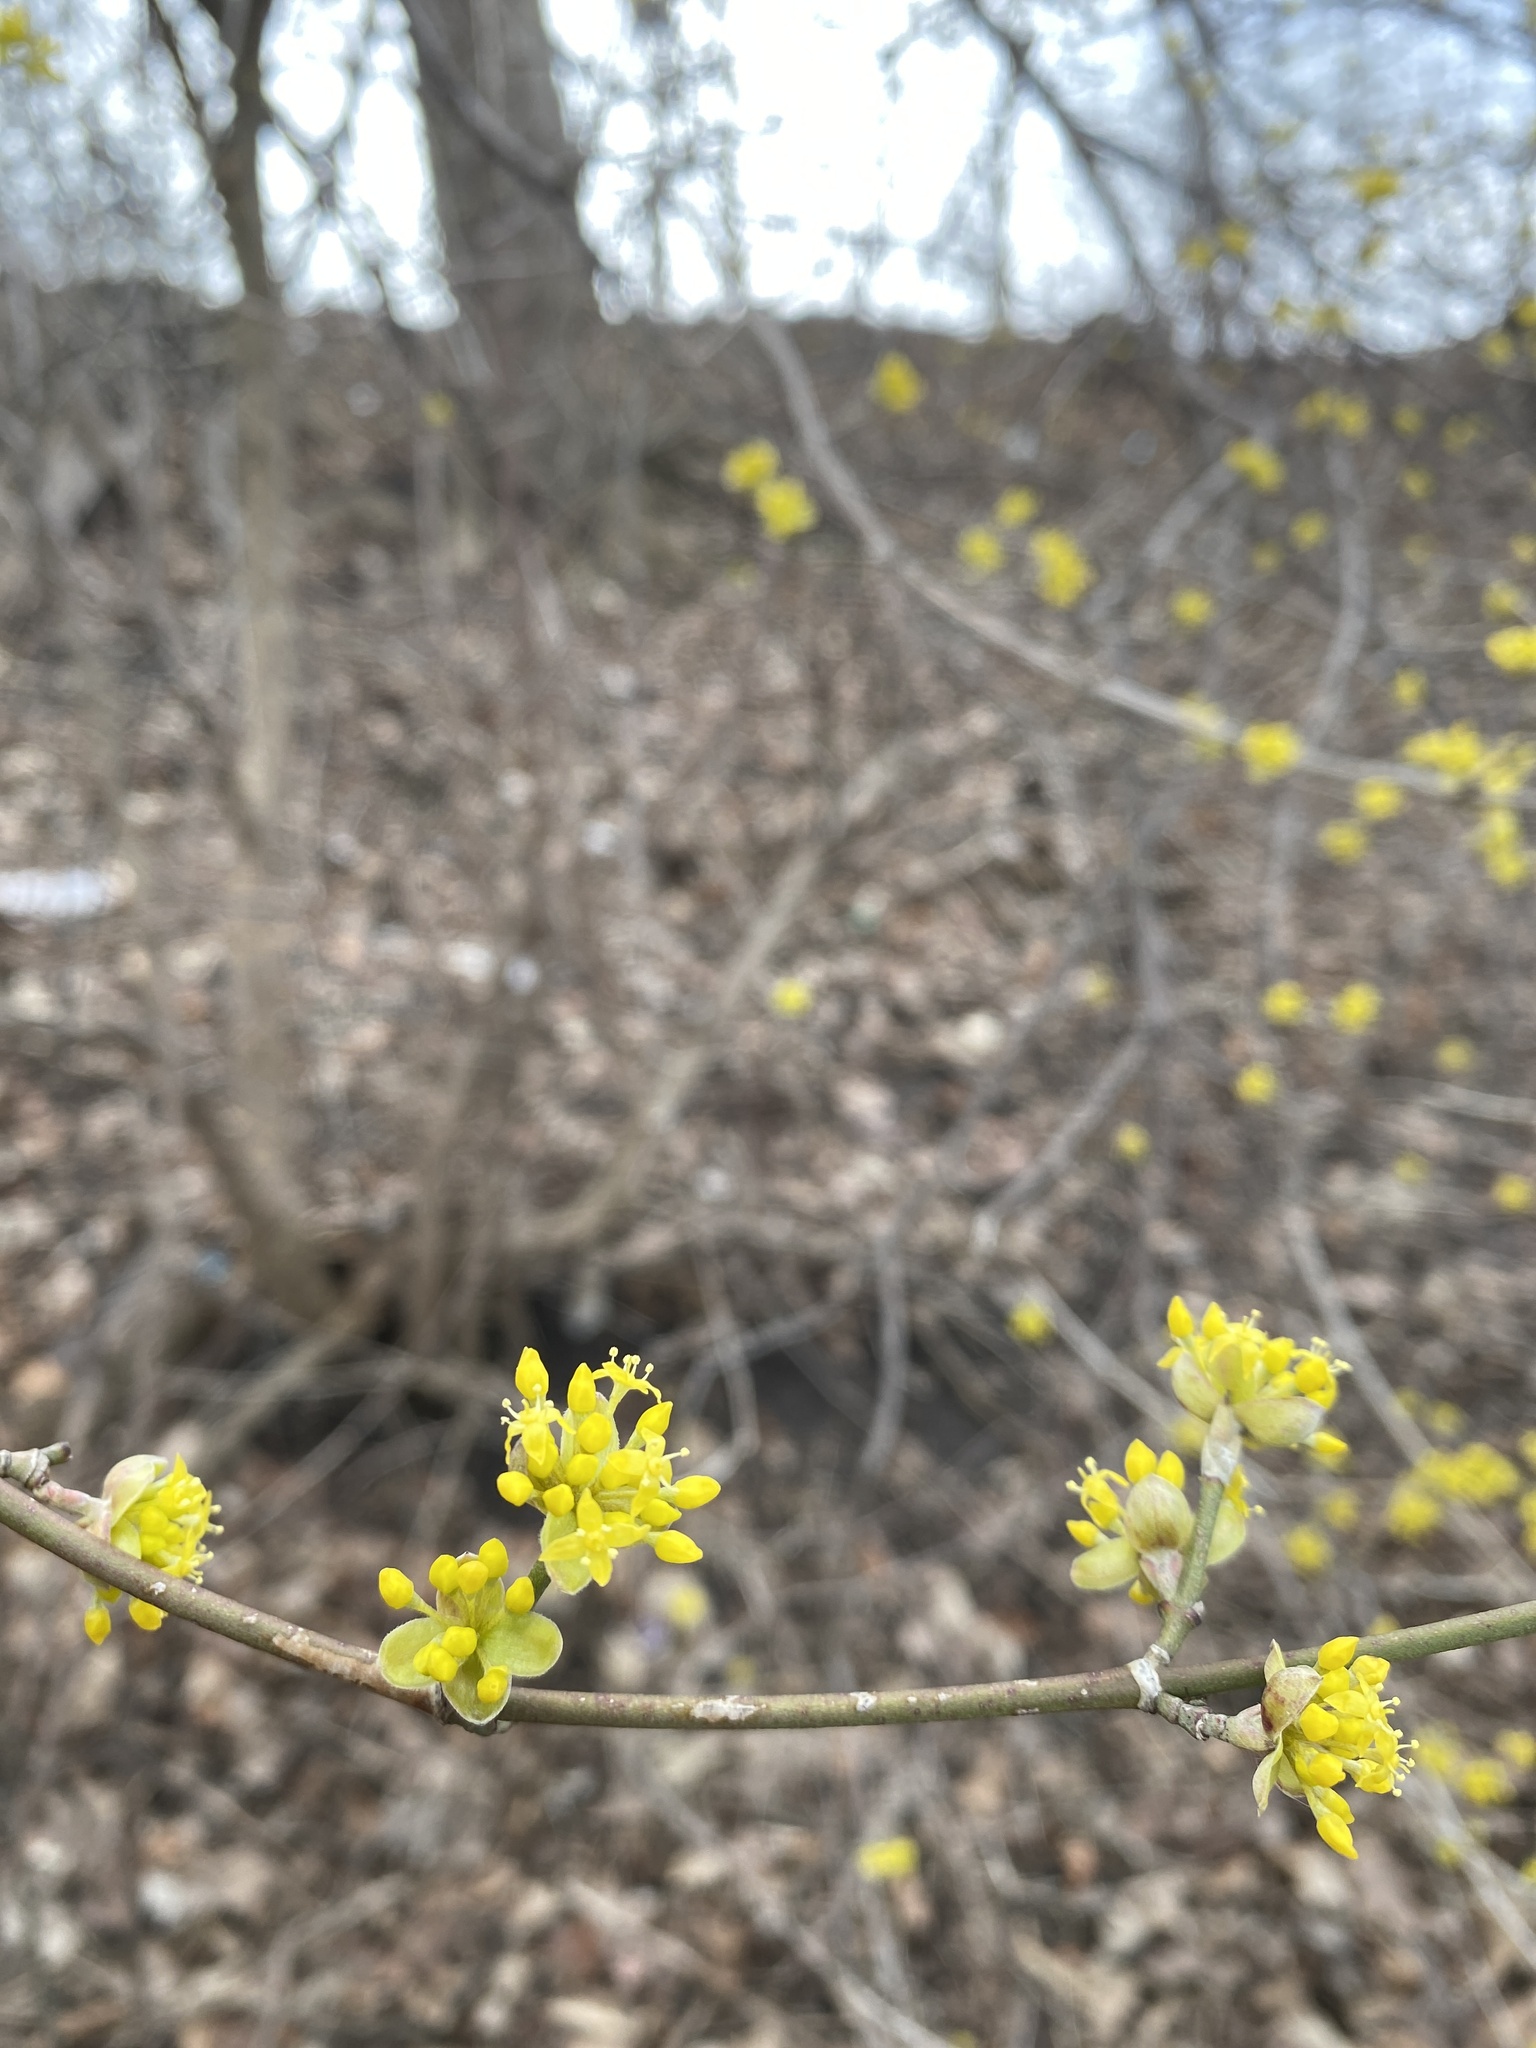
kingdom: Plantae
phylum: Tracheophyta
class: Magnoliopsida
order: Cornales
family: Cornaceae
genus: Cornus
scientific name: Cornus mas
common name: Cornelian-cherry
